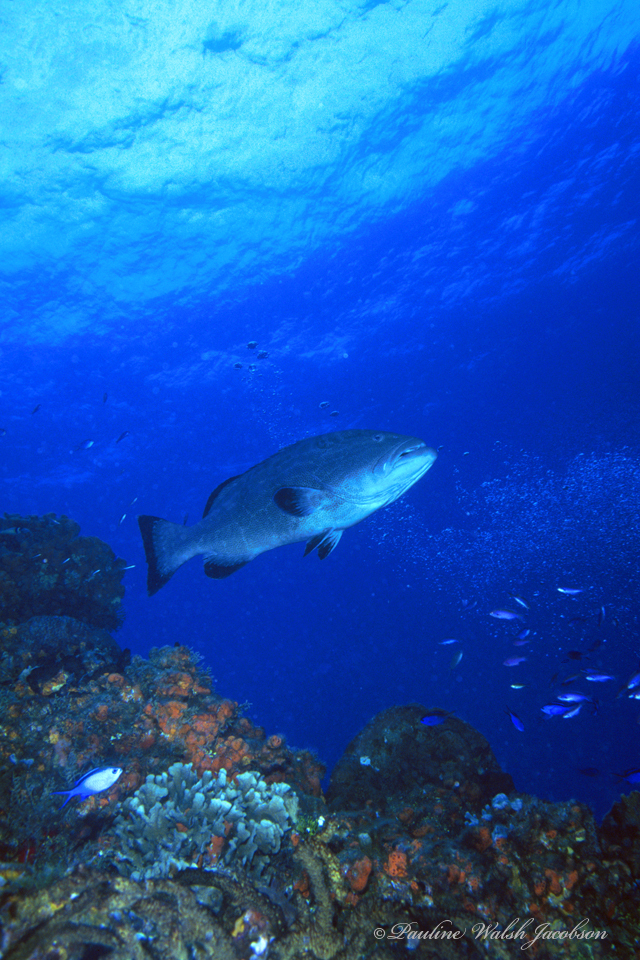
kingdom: Animalia
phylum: Chordata
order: Perciformes
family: Serranidae
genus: Mycteroperca
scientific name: Mycteroperca bonaci
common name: Black grouper
